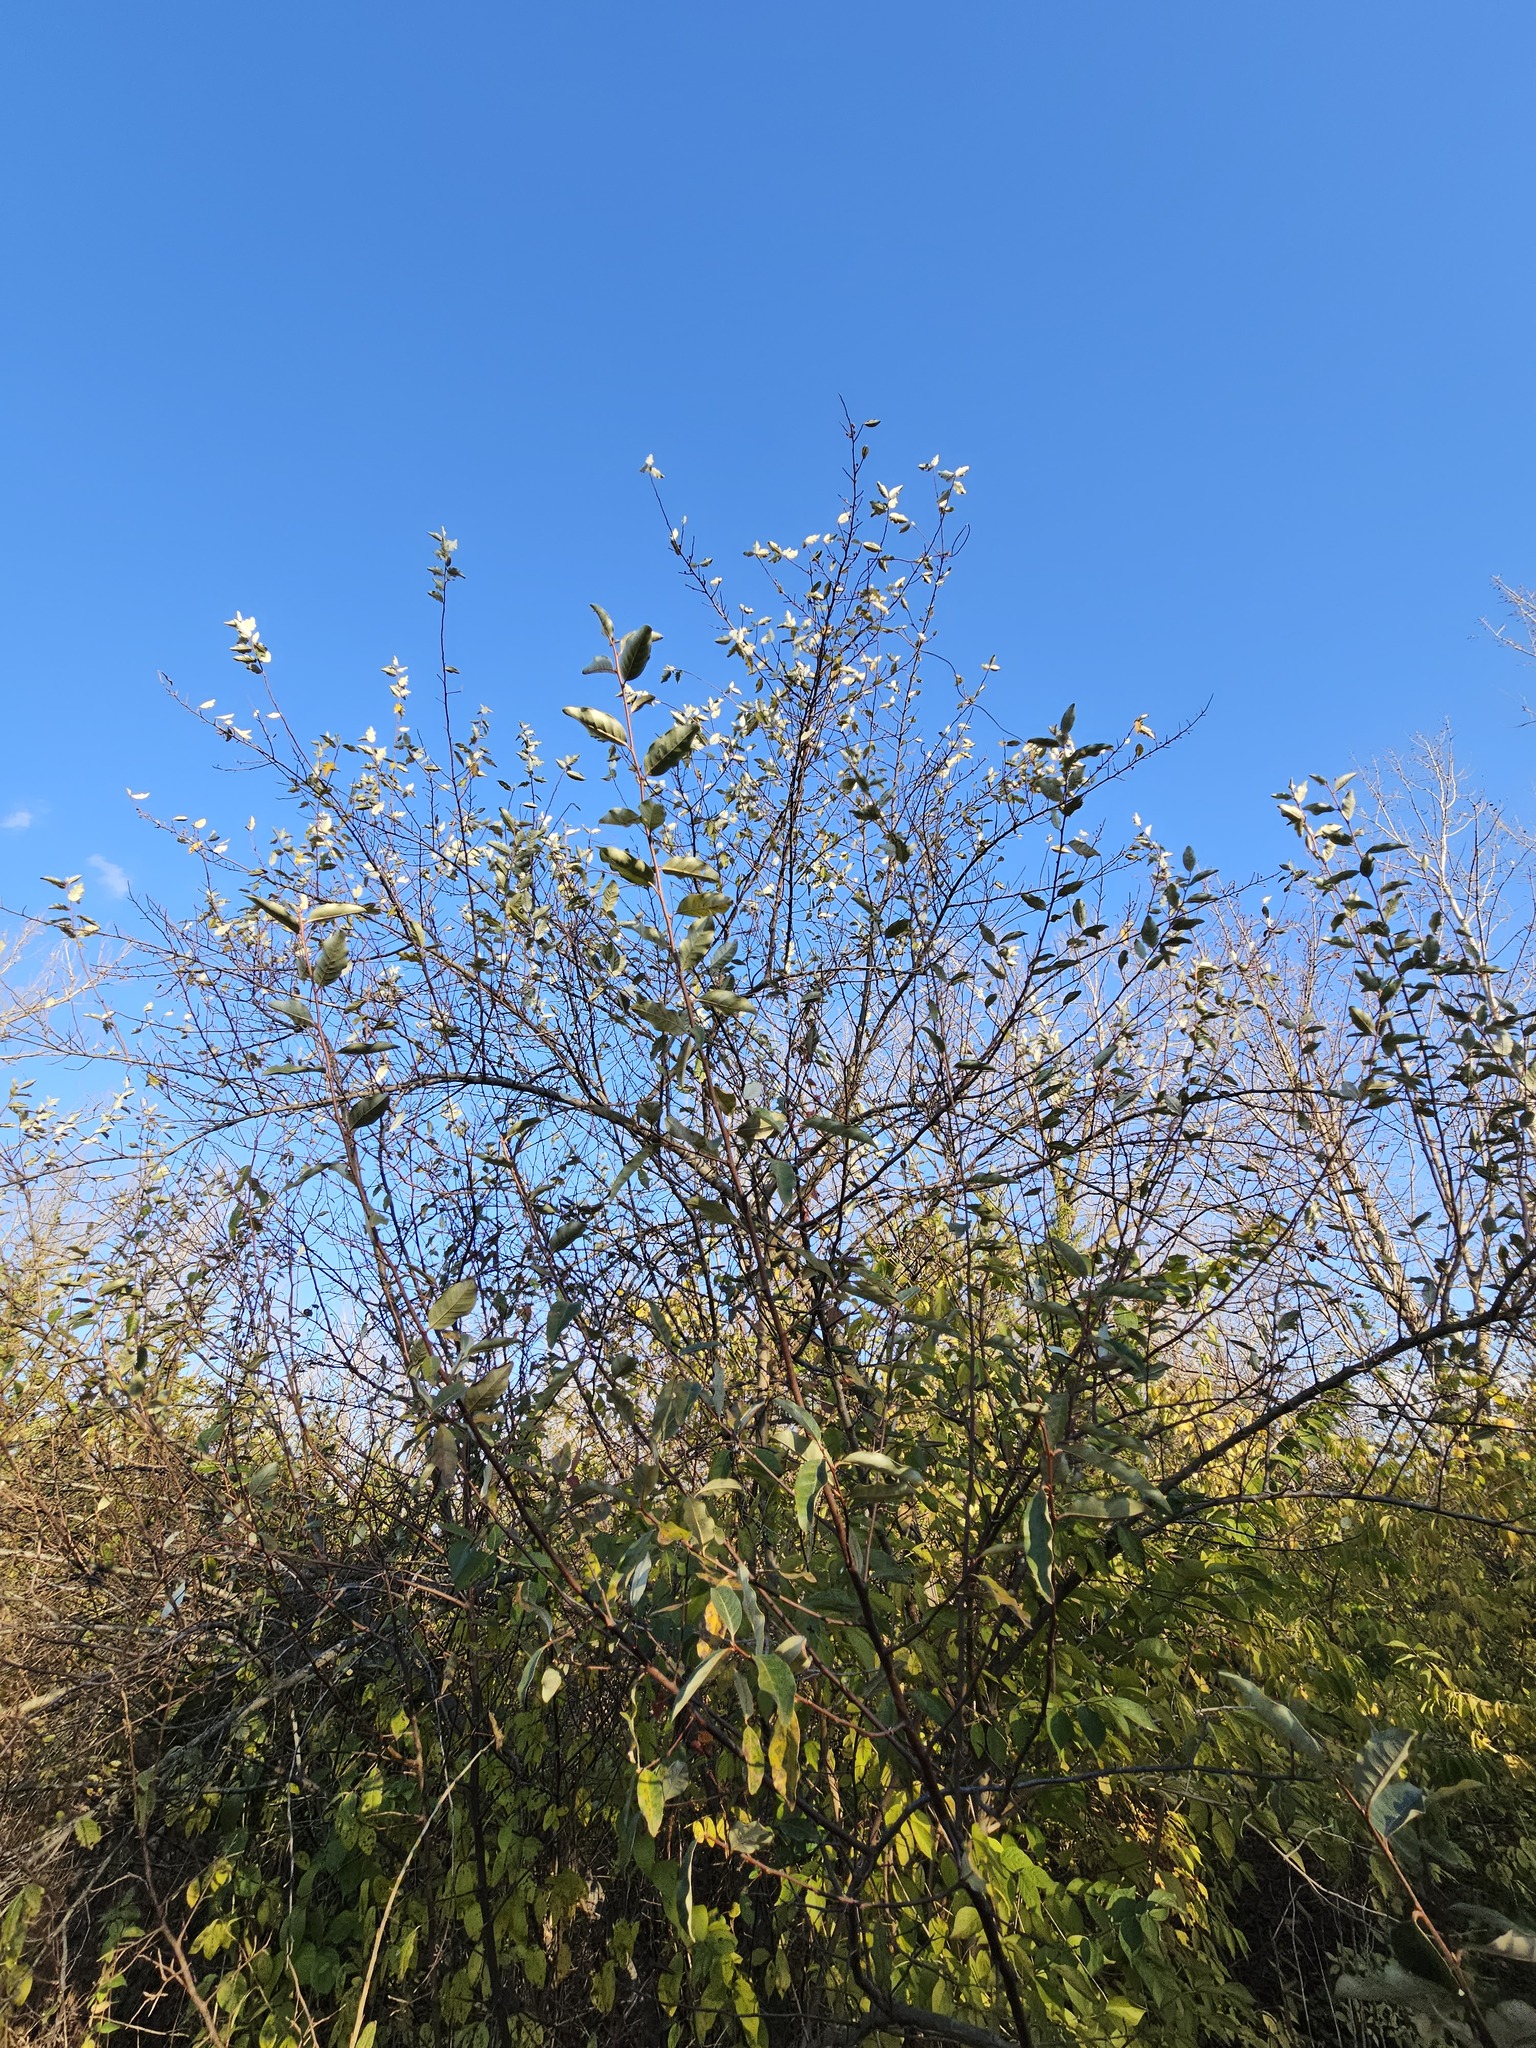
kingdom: Plantae
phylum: Tracheophyta
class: Magnoliopsida
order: Rosales
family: Elaeagnaceae
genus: Elaeagnus
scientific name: Elaeagnus umbellata
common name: Autumn olive
